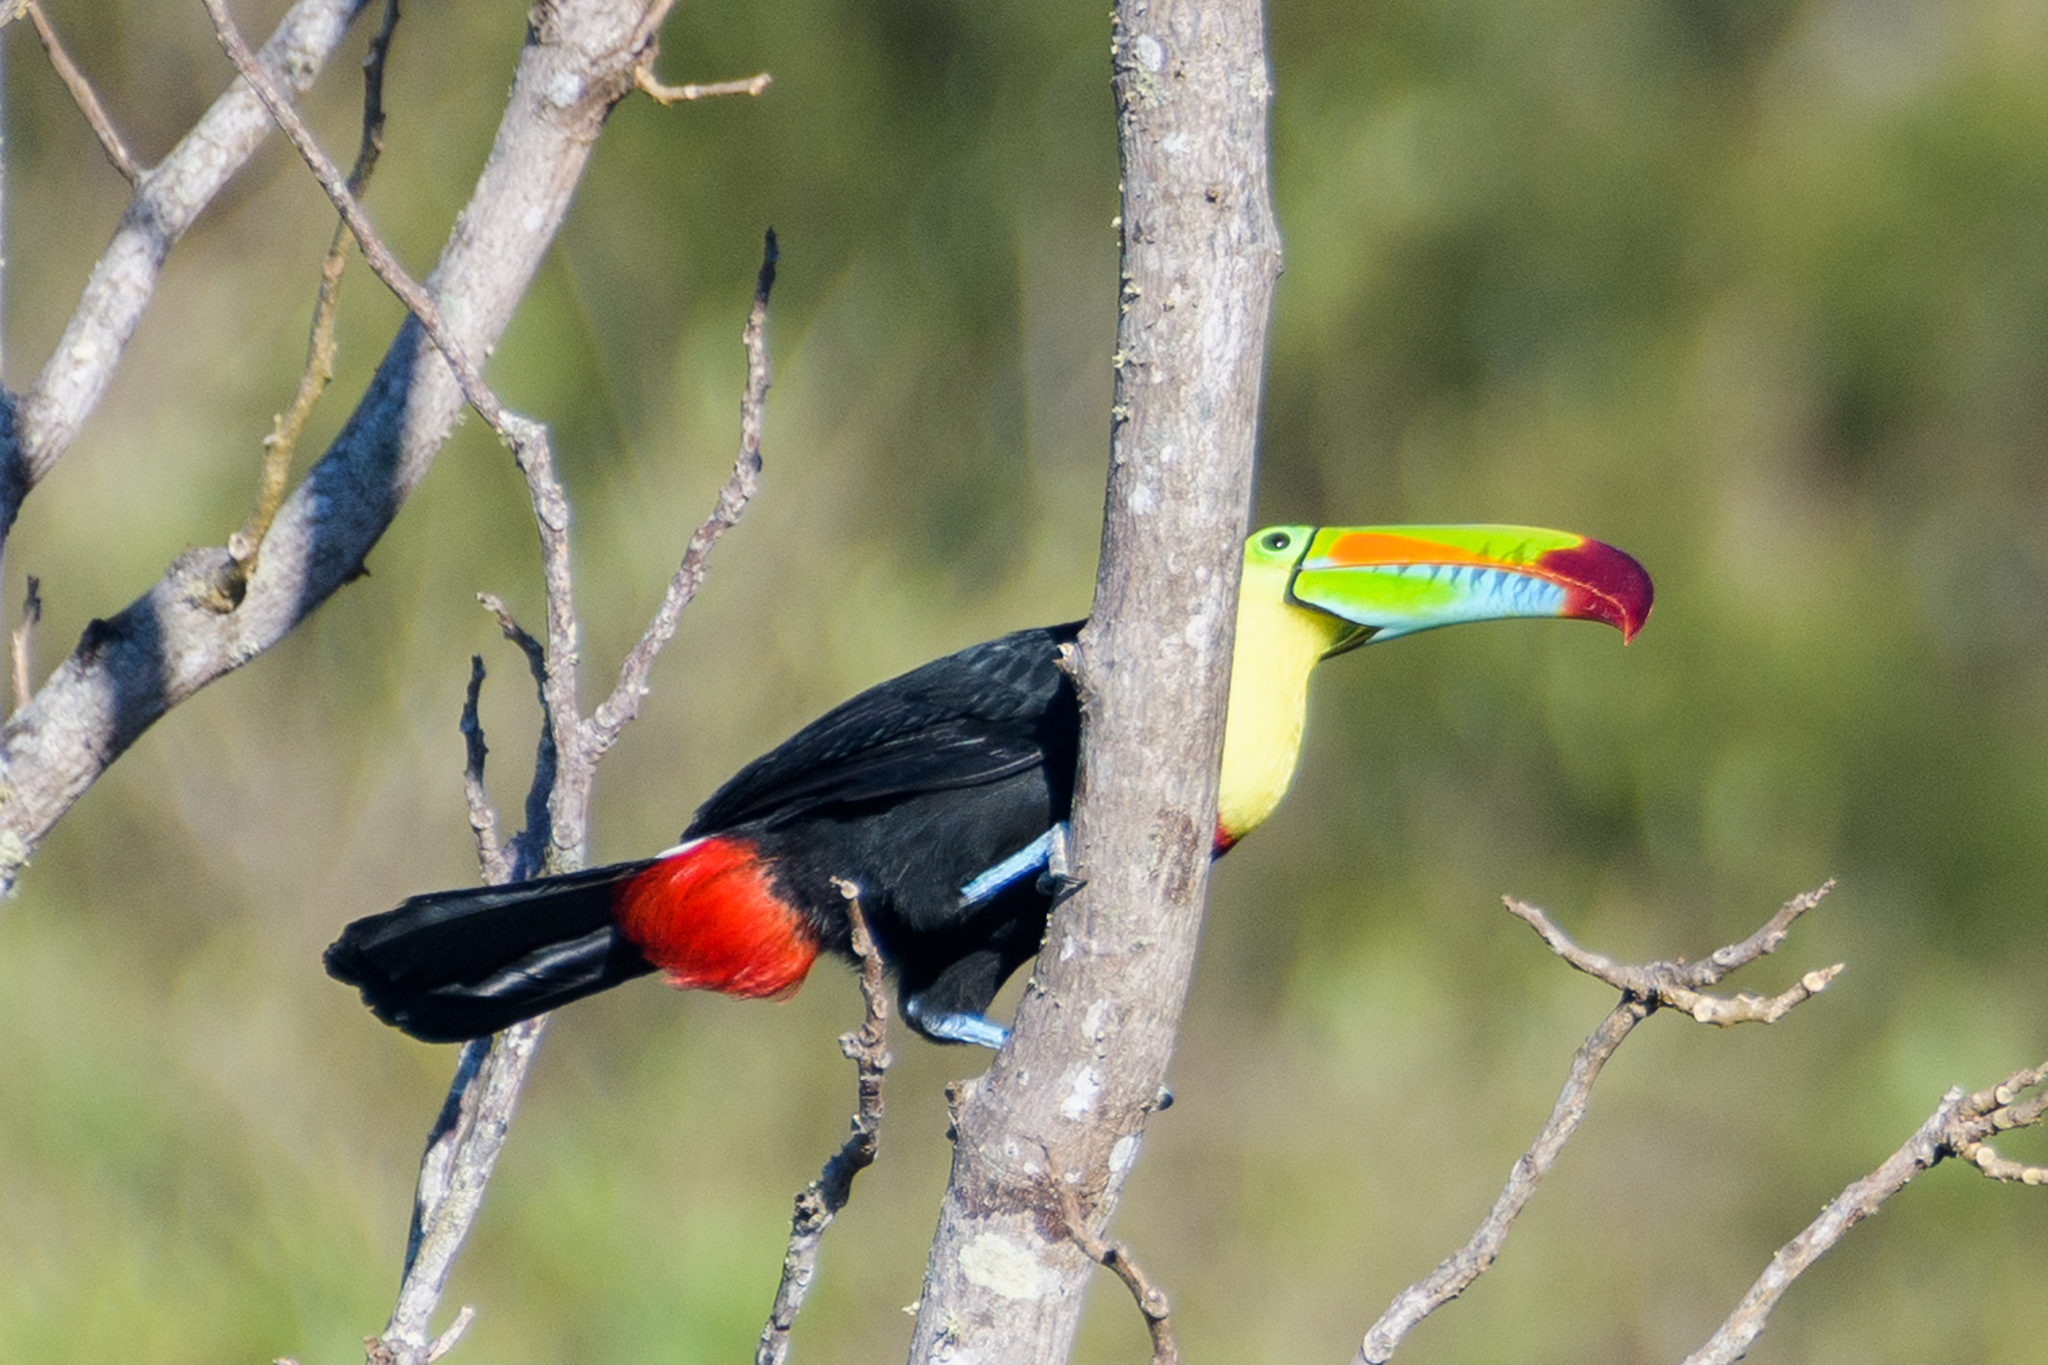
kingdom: Animalia
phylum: Chordata
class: Aves
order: Piciformes
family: Ramphastidae
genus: Ramphastos
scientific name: Ramphastos sulfuratus
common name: Keel-billed toucan
